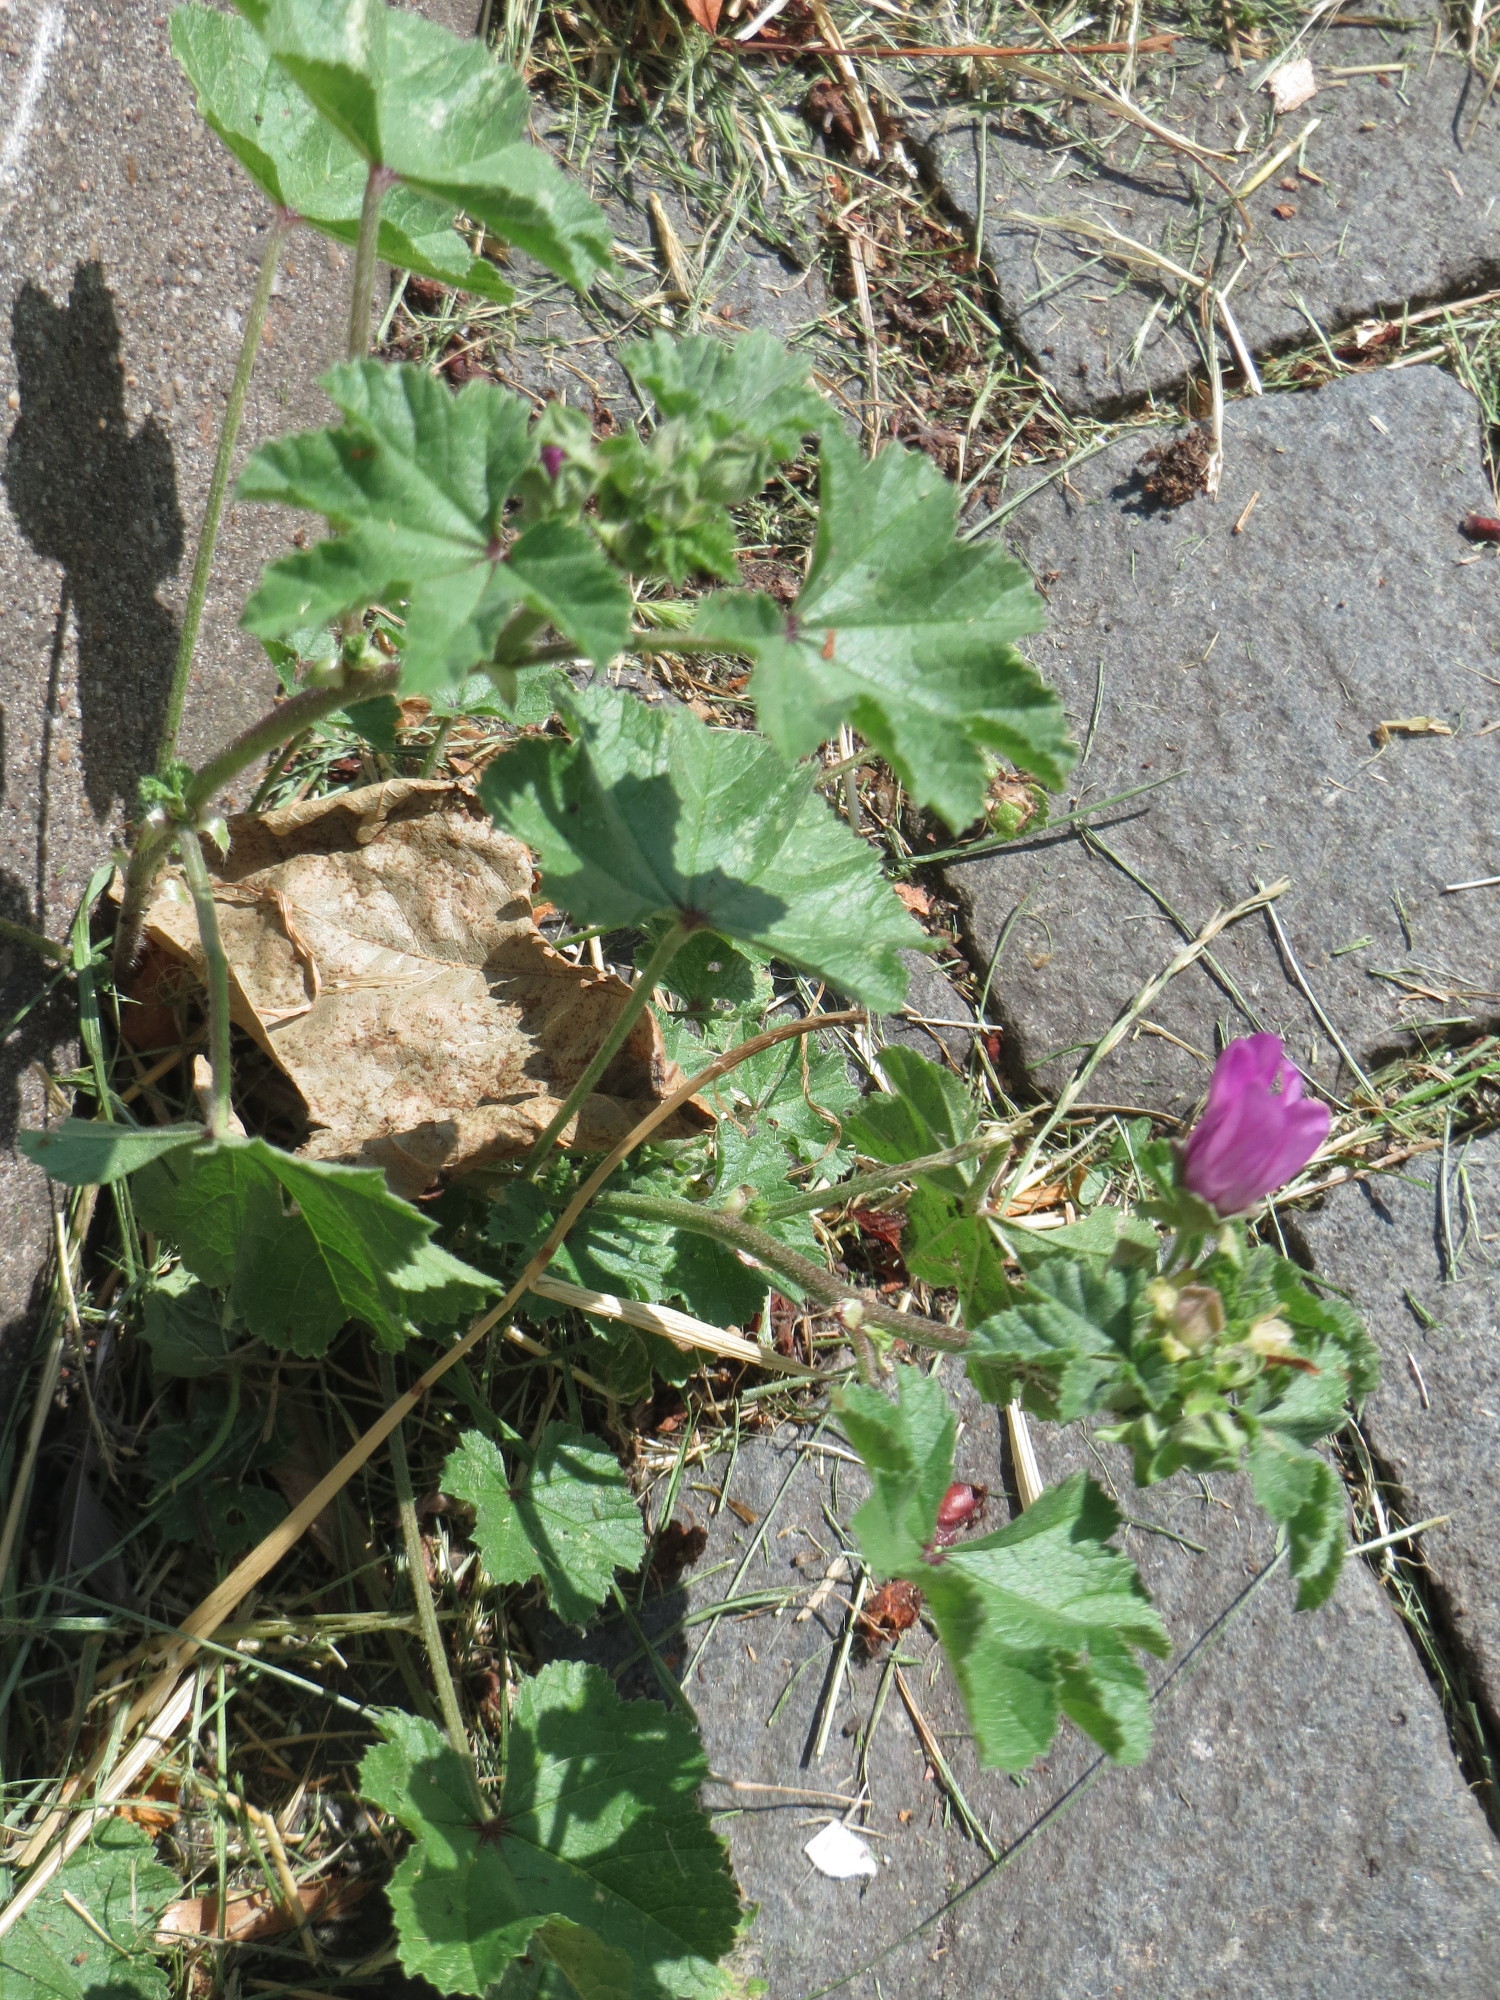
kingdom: Plantae
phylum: Tracheophyta
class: Magnoliopsida
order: Malvales
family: Malvaceae
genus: Malva
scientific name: Malva sylvestris
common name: Common mallow
